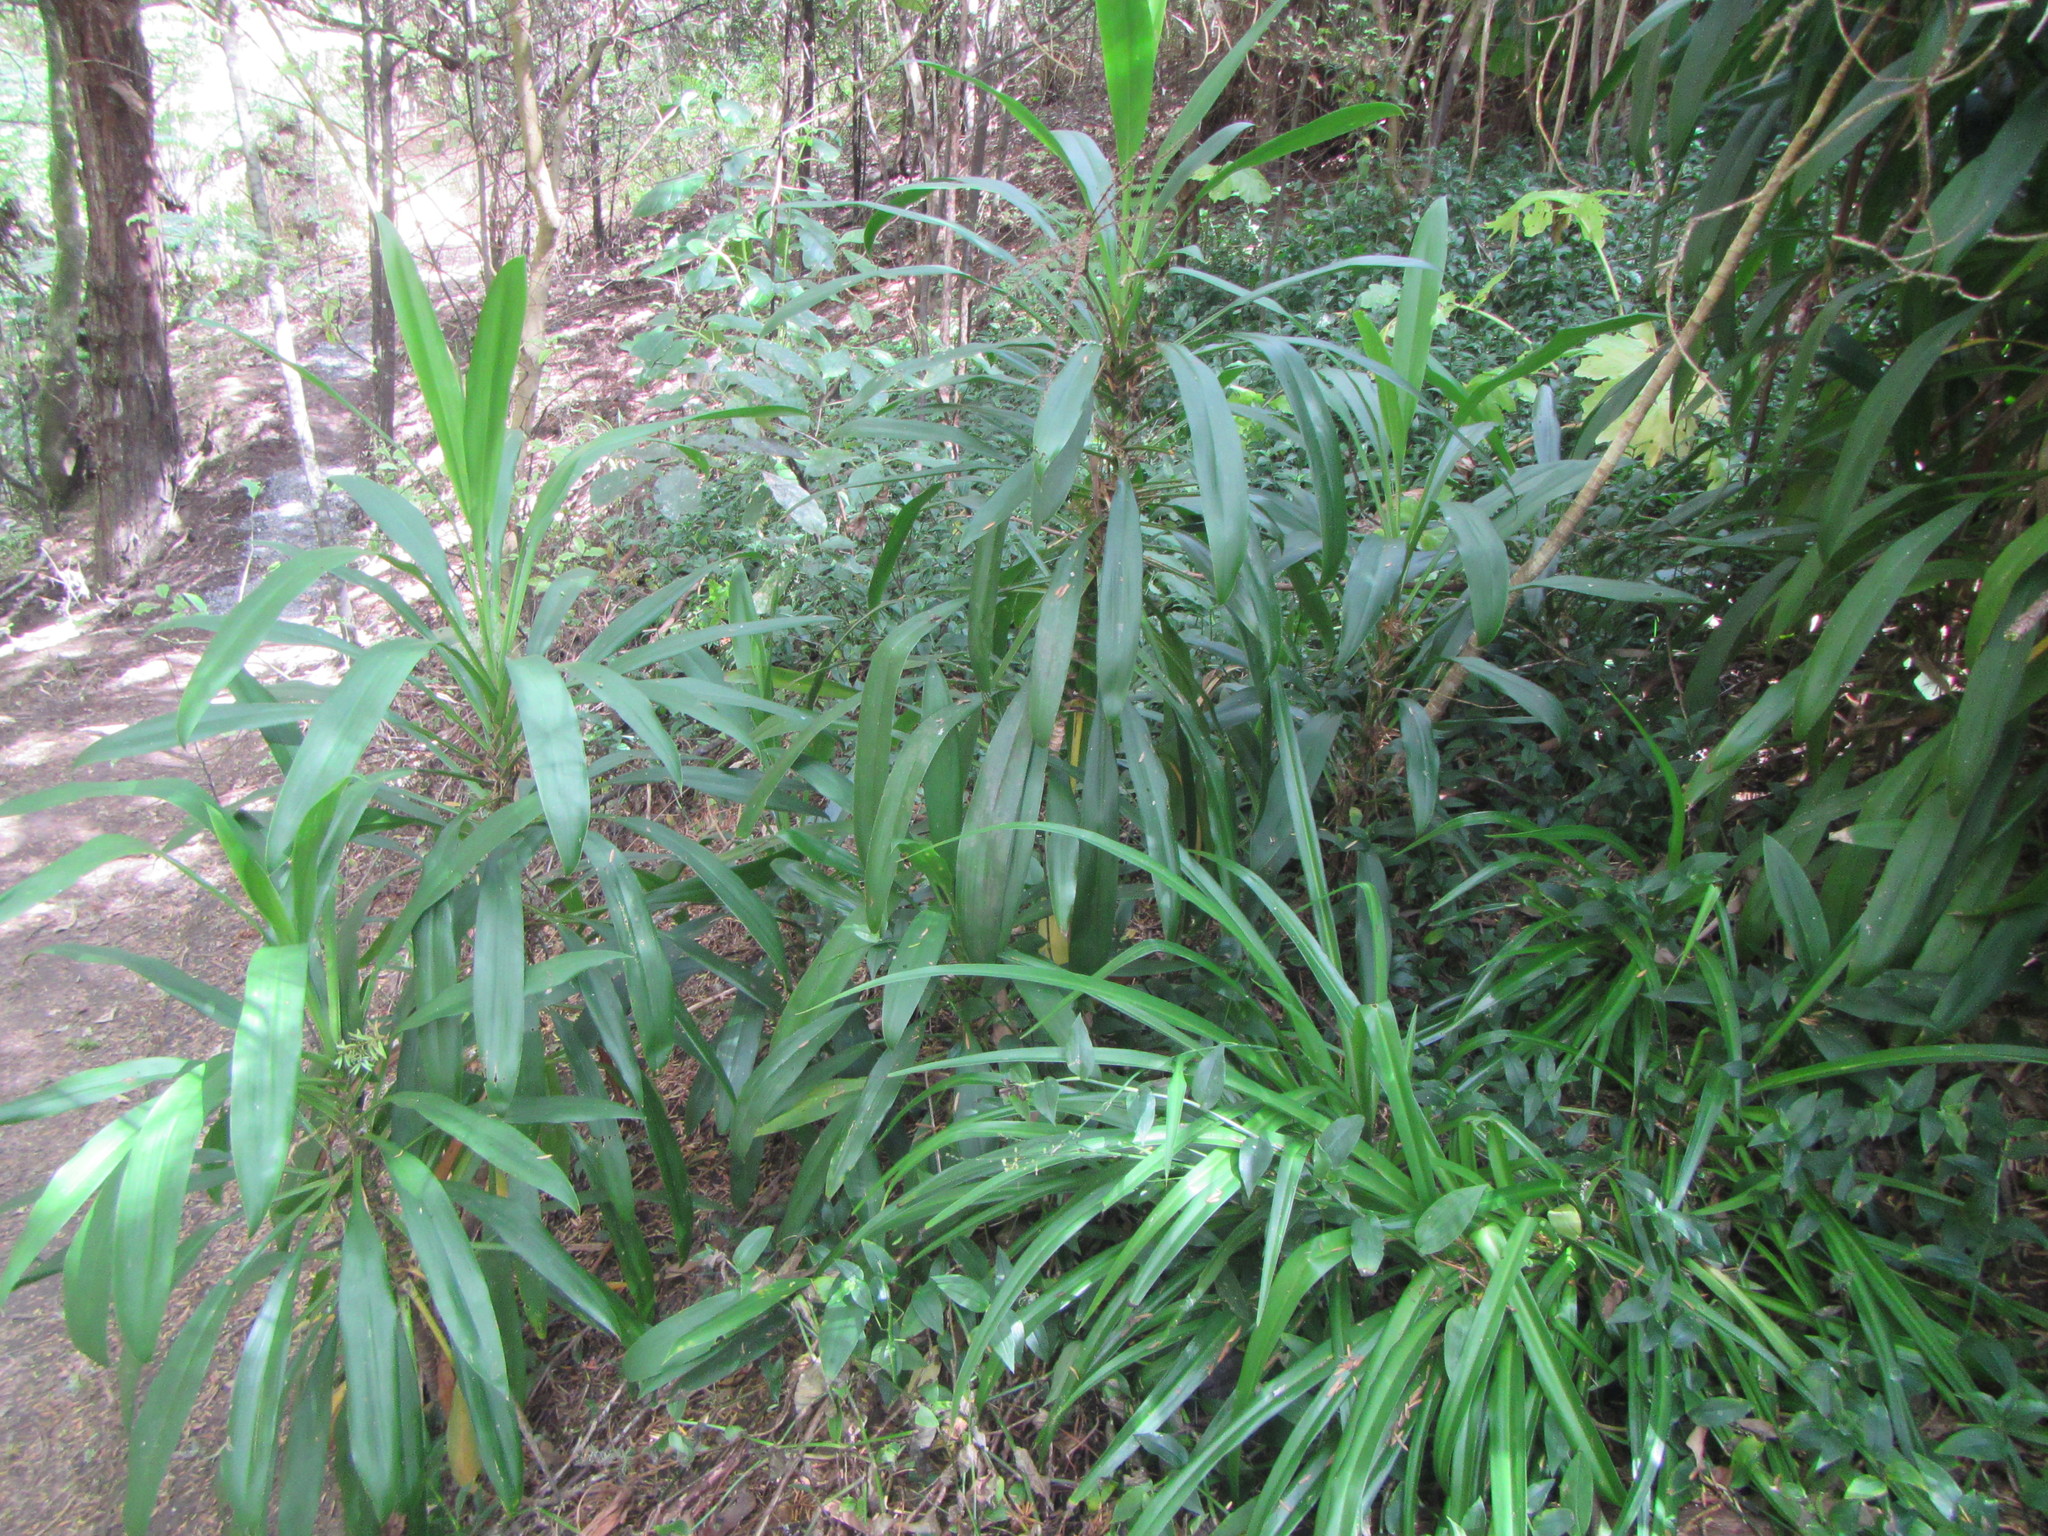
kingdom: Plantae
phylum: Tracheophyta
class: Liliopsida
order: Asparagales
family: Asparagaceae
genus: Cordyline
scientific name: Cordyline rubra
